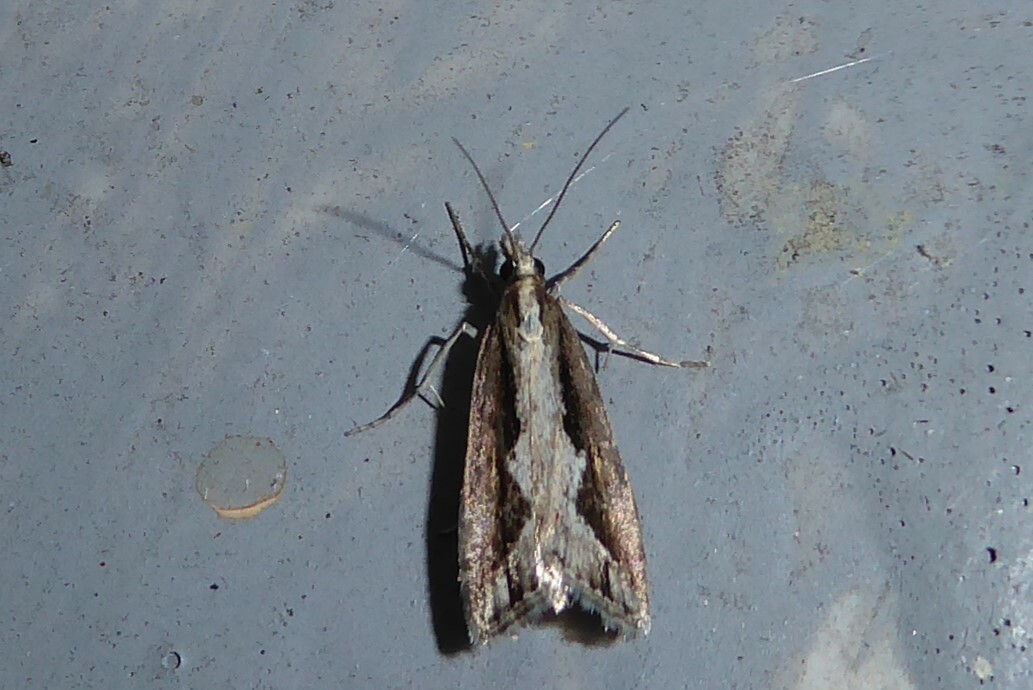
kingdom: Animalia
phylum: Arthropoda
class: Insecta
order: Lepidoptera
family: Crambidae
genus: Eudonia
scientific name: Eudonia steropaea
